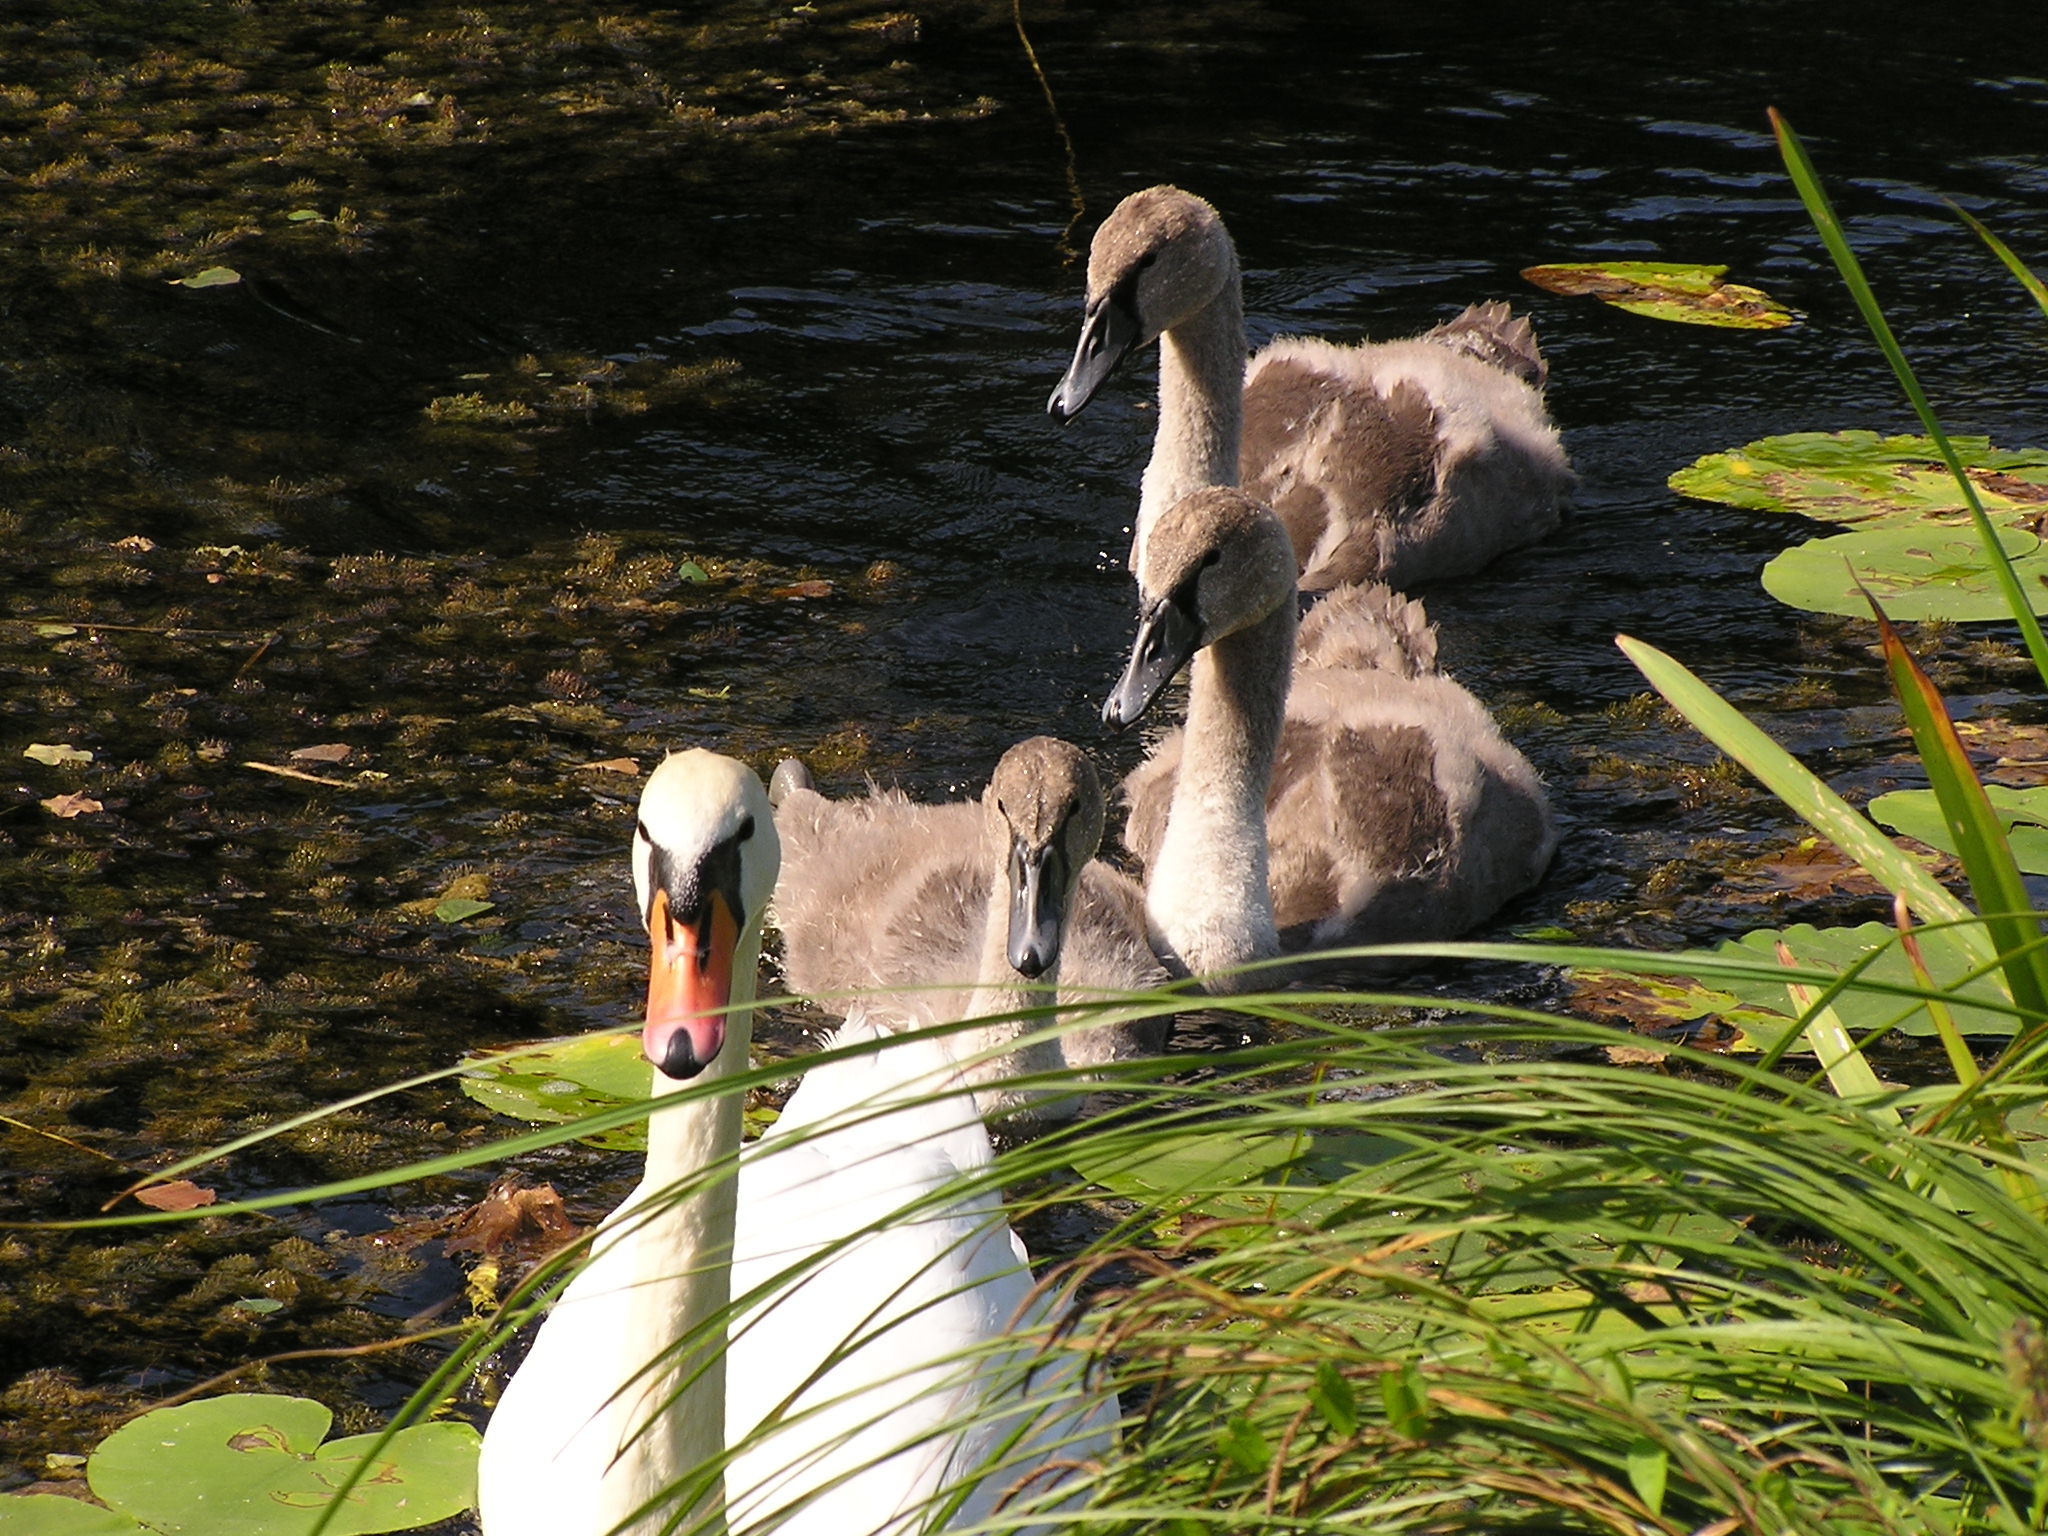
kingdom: Animalia
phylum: Chordata
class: Aves
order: Anseriformes
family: Anatidae
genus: Cygnus
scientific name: Cygnus olor
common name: Mute swan
